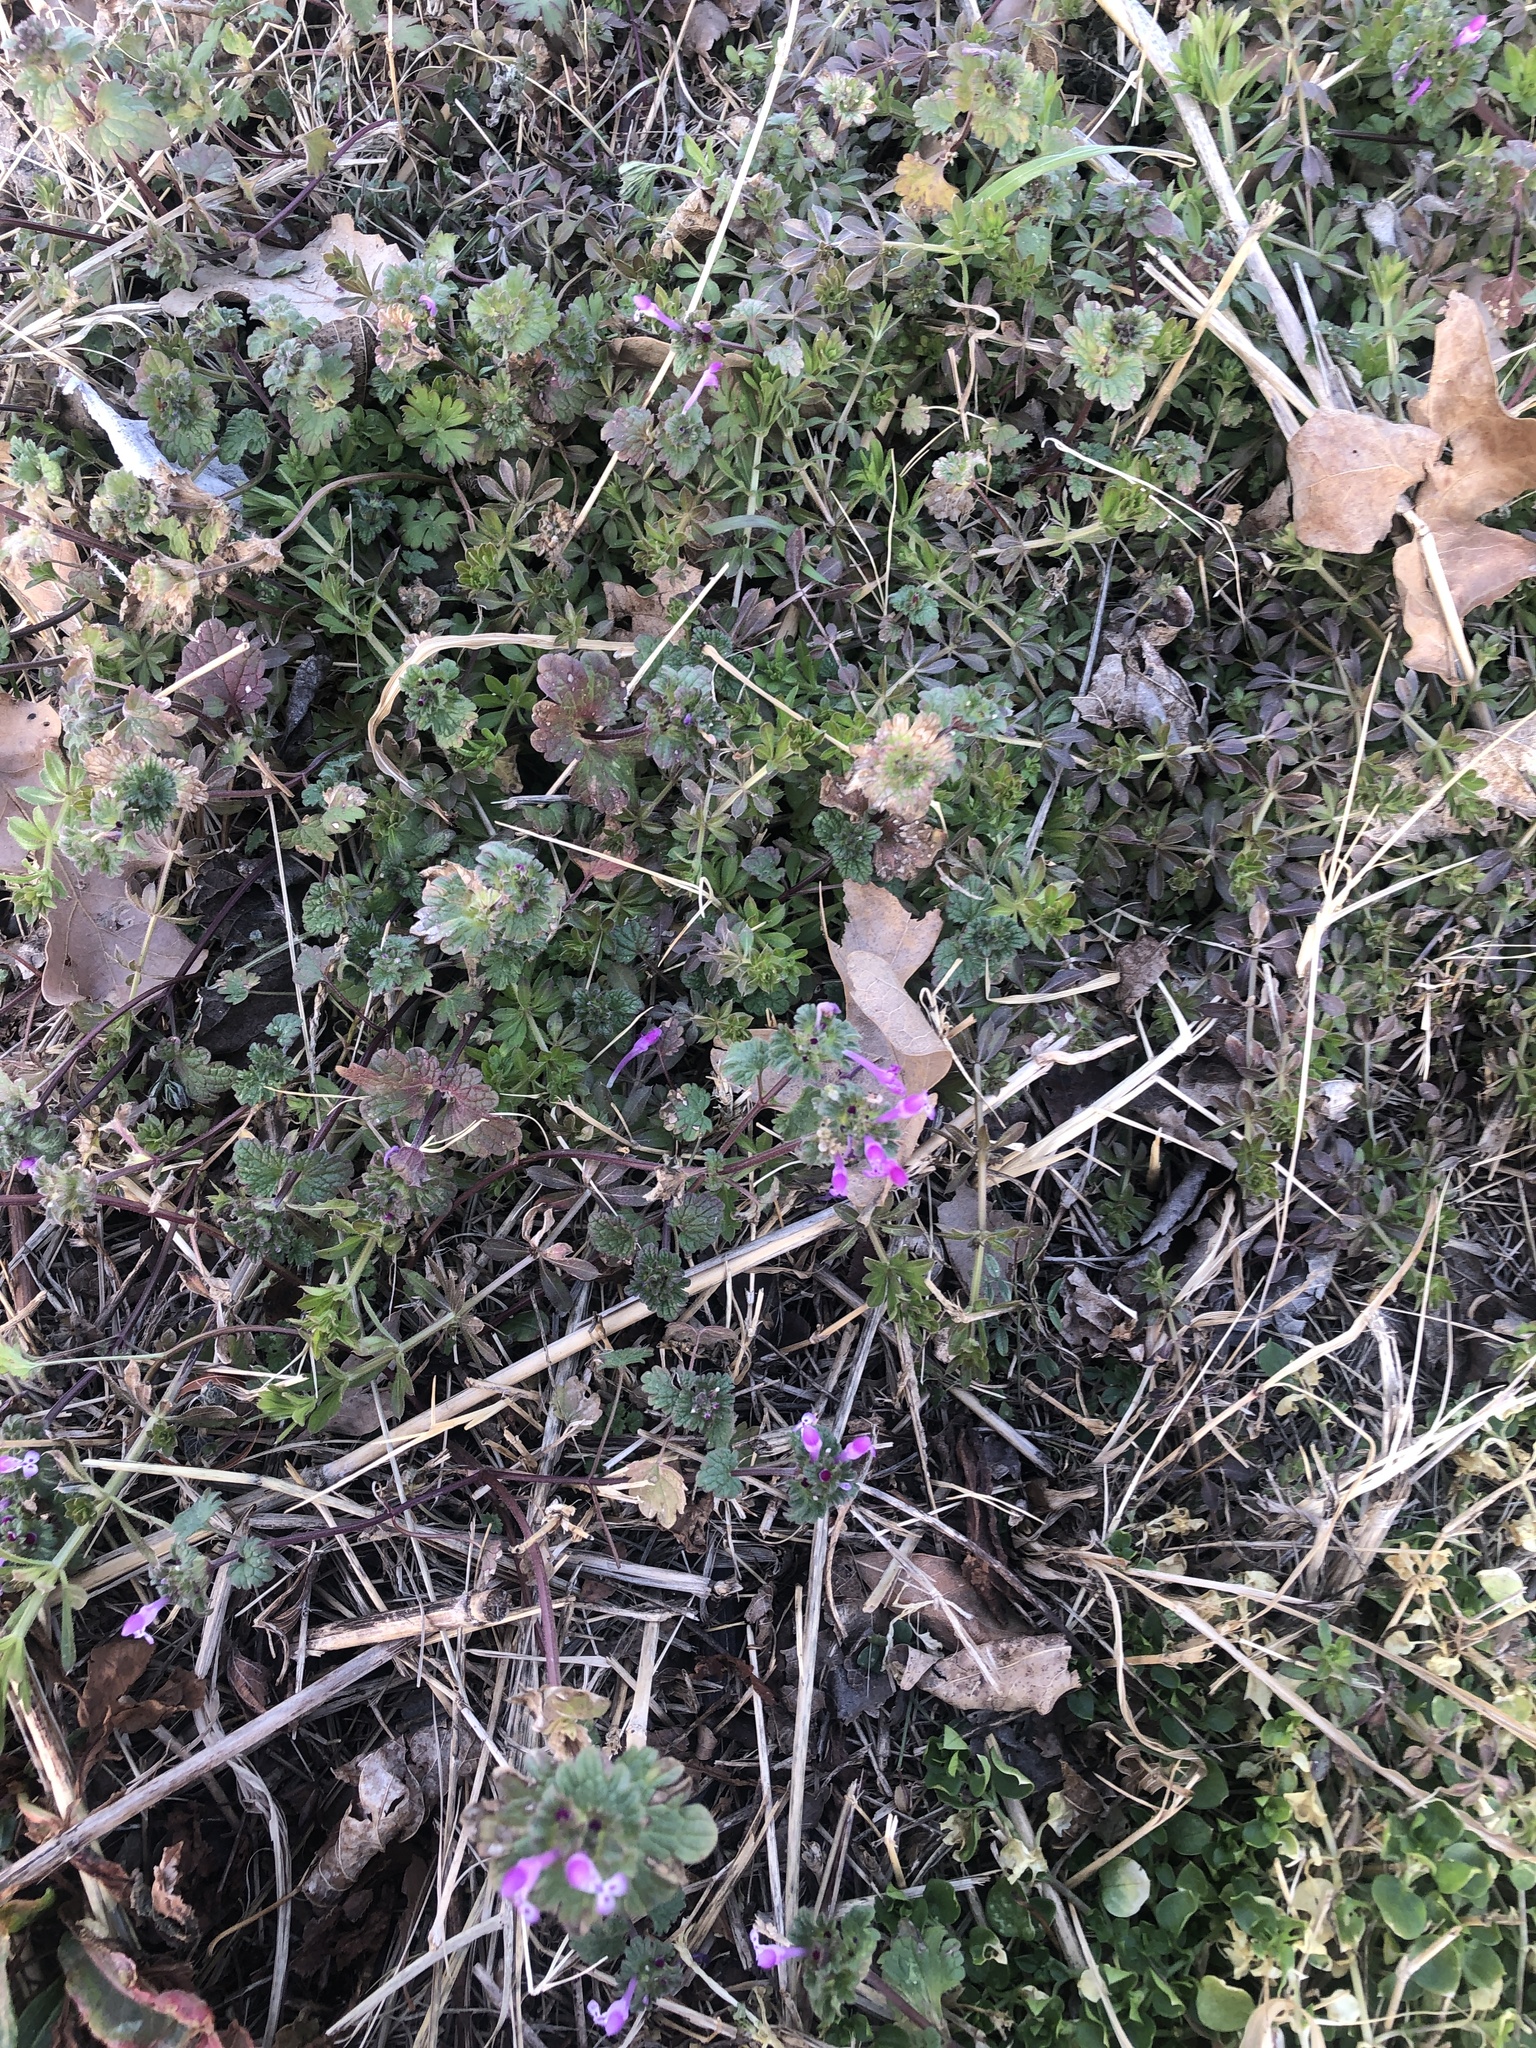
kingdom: Plantae
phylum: Tracheophyta
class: Magnoliopsida
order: Lamiales
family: Lamiaceae
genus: Lamium
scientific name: Lamium amplexicaule
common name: Henbit dead-nettle
